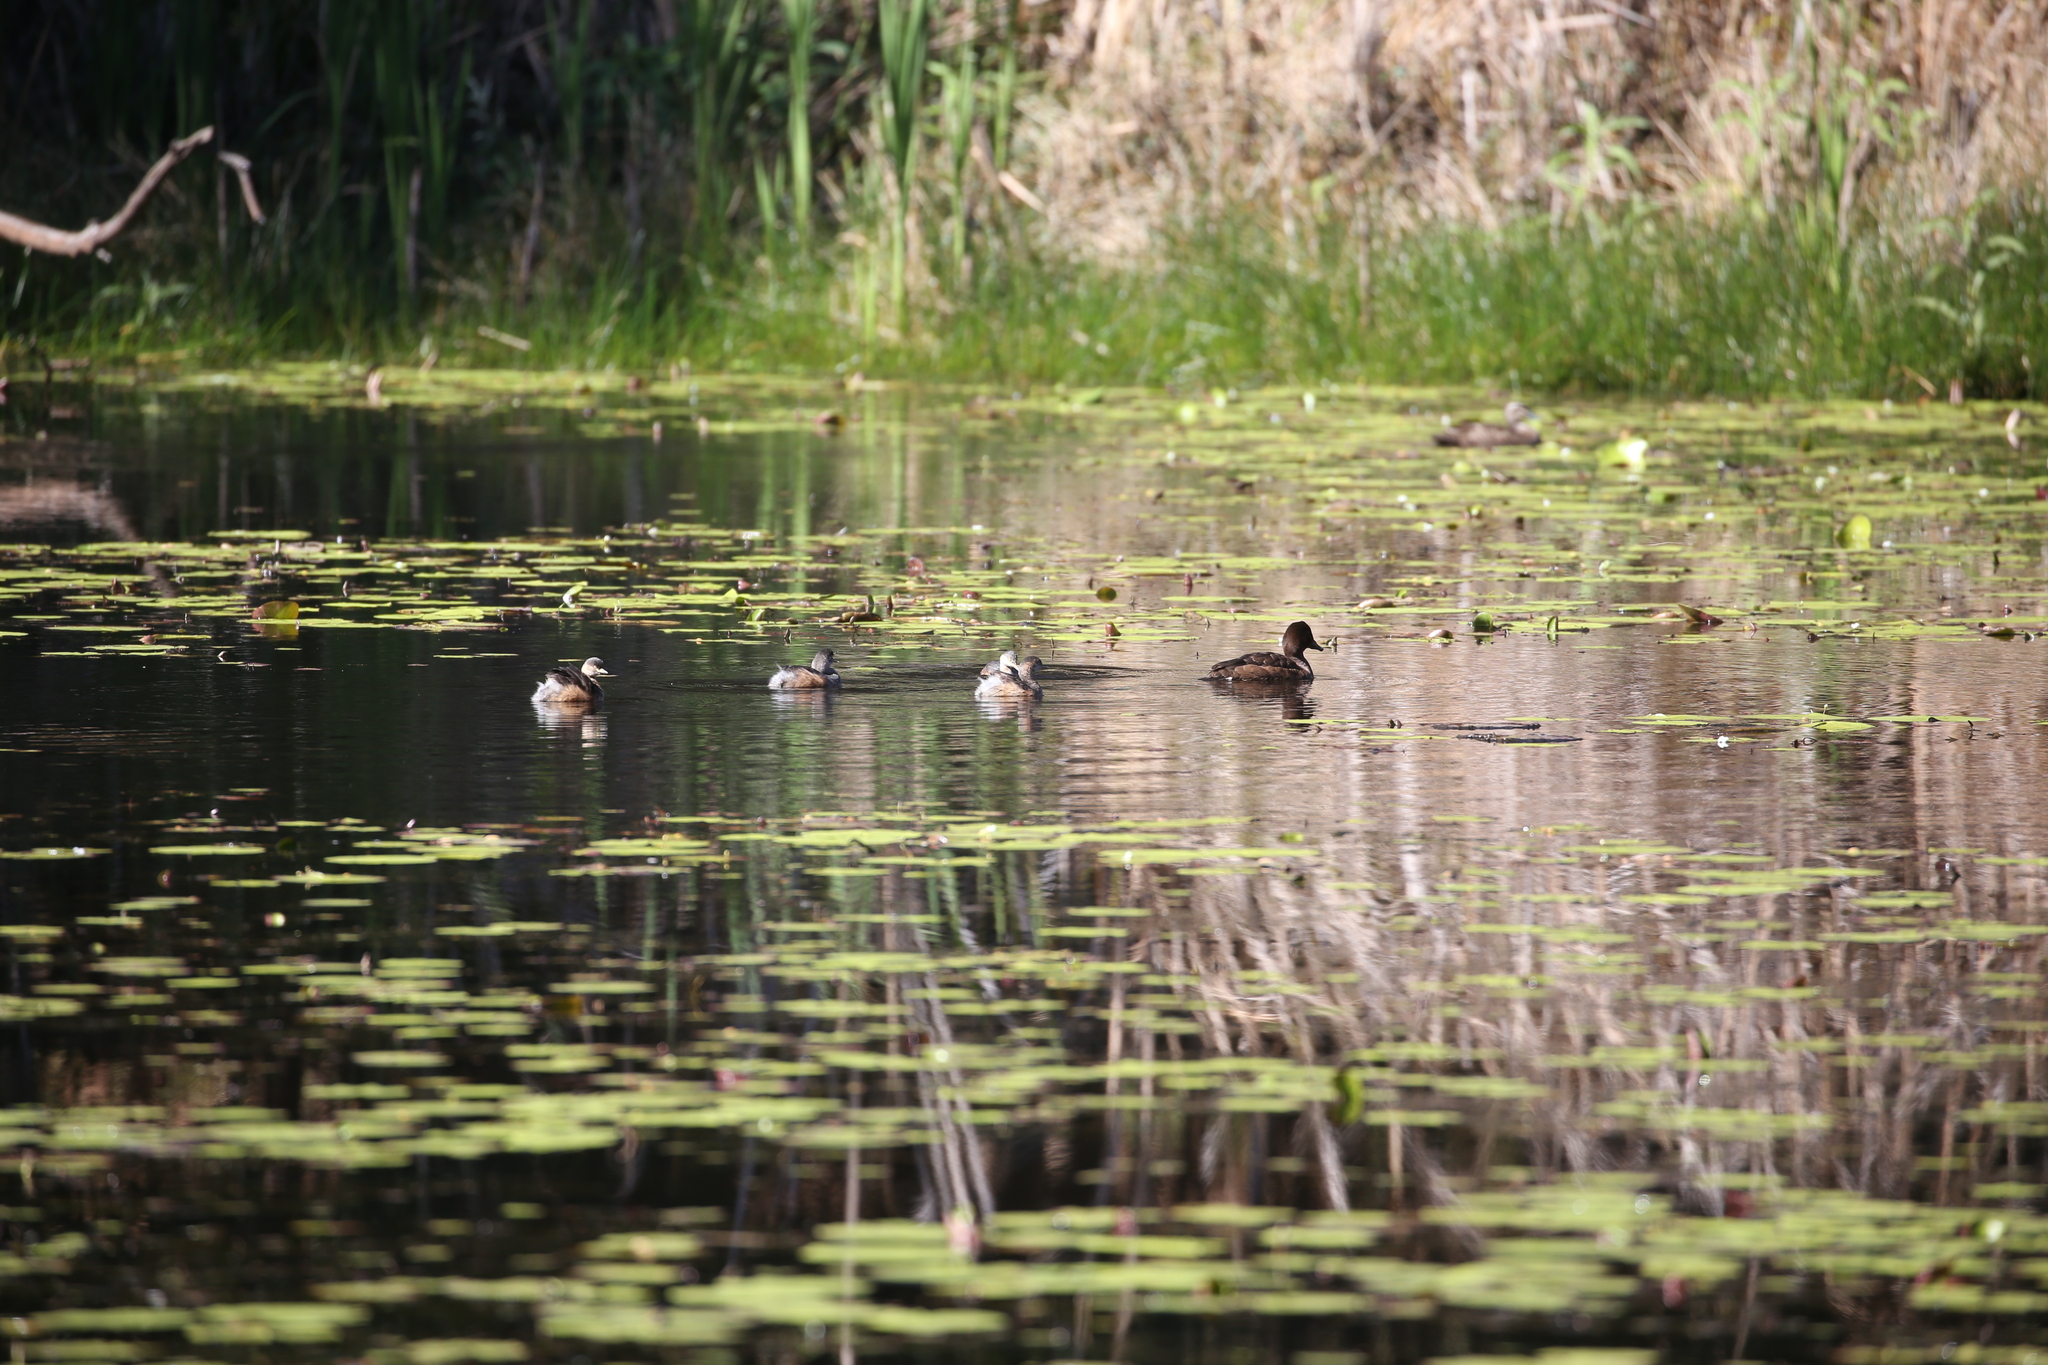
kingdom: Animalia
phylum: Chordata
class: Aves
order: Podicipediformes
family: Podicipedidae
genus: Tachybaptus
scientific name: Tachybaptus novaehollandiae
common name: Australasian grebe
